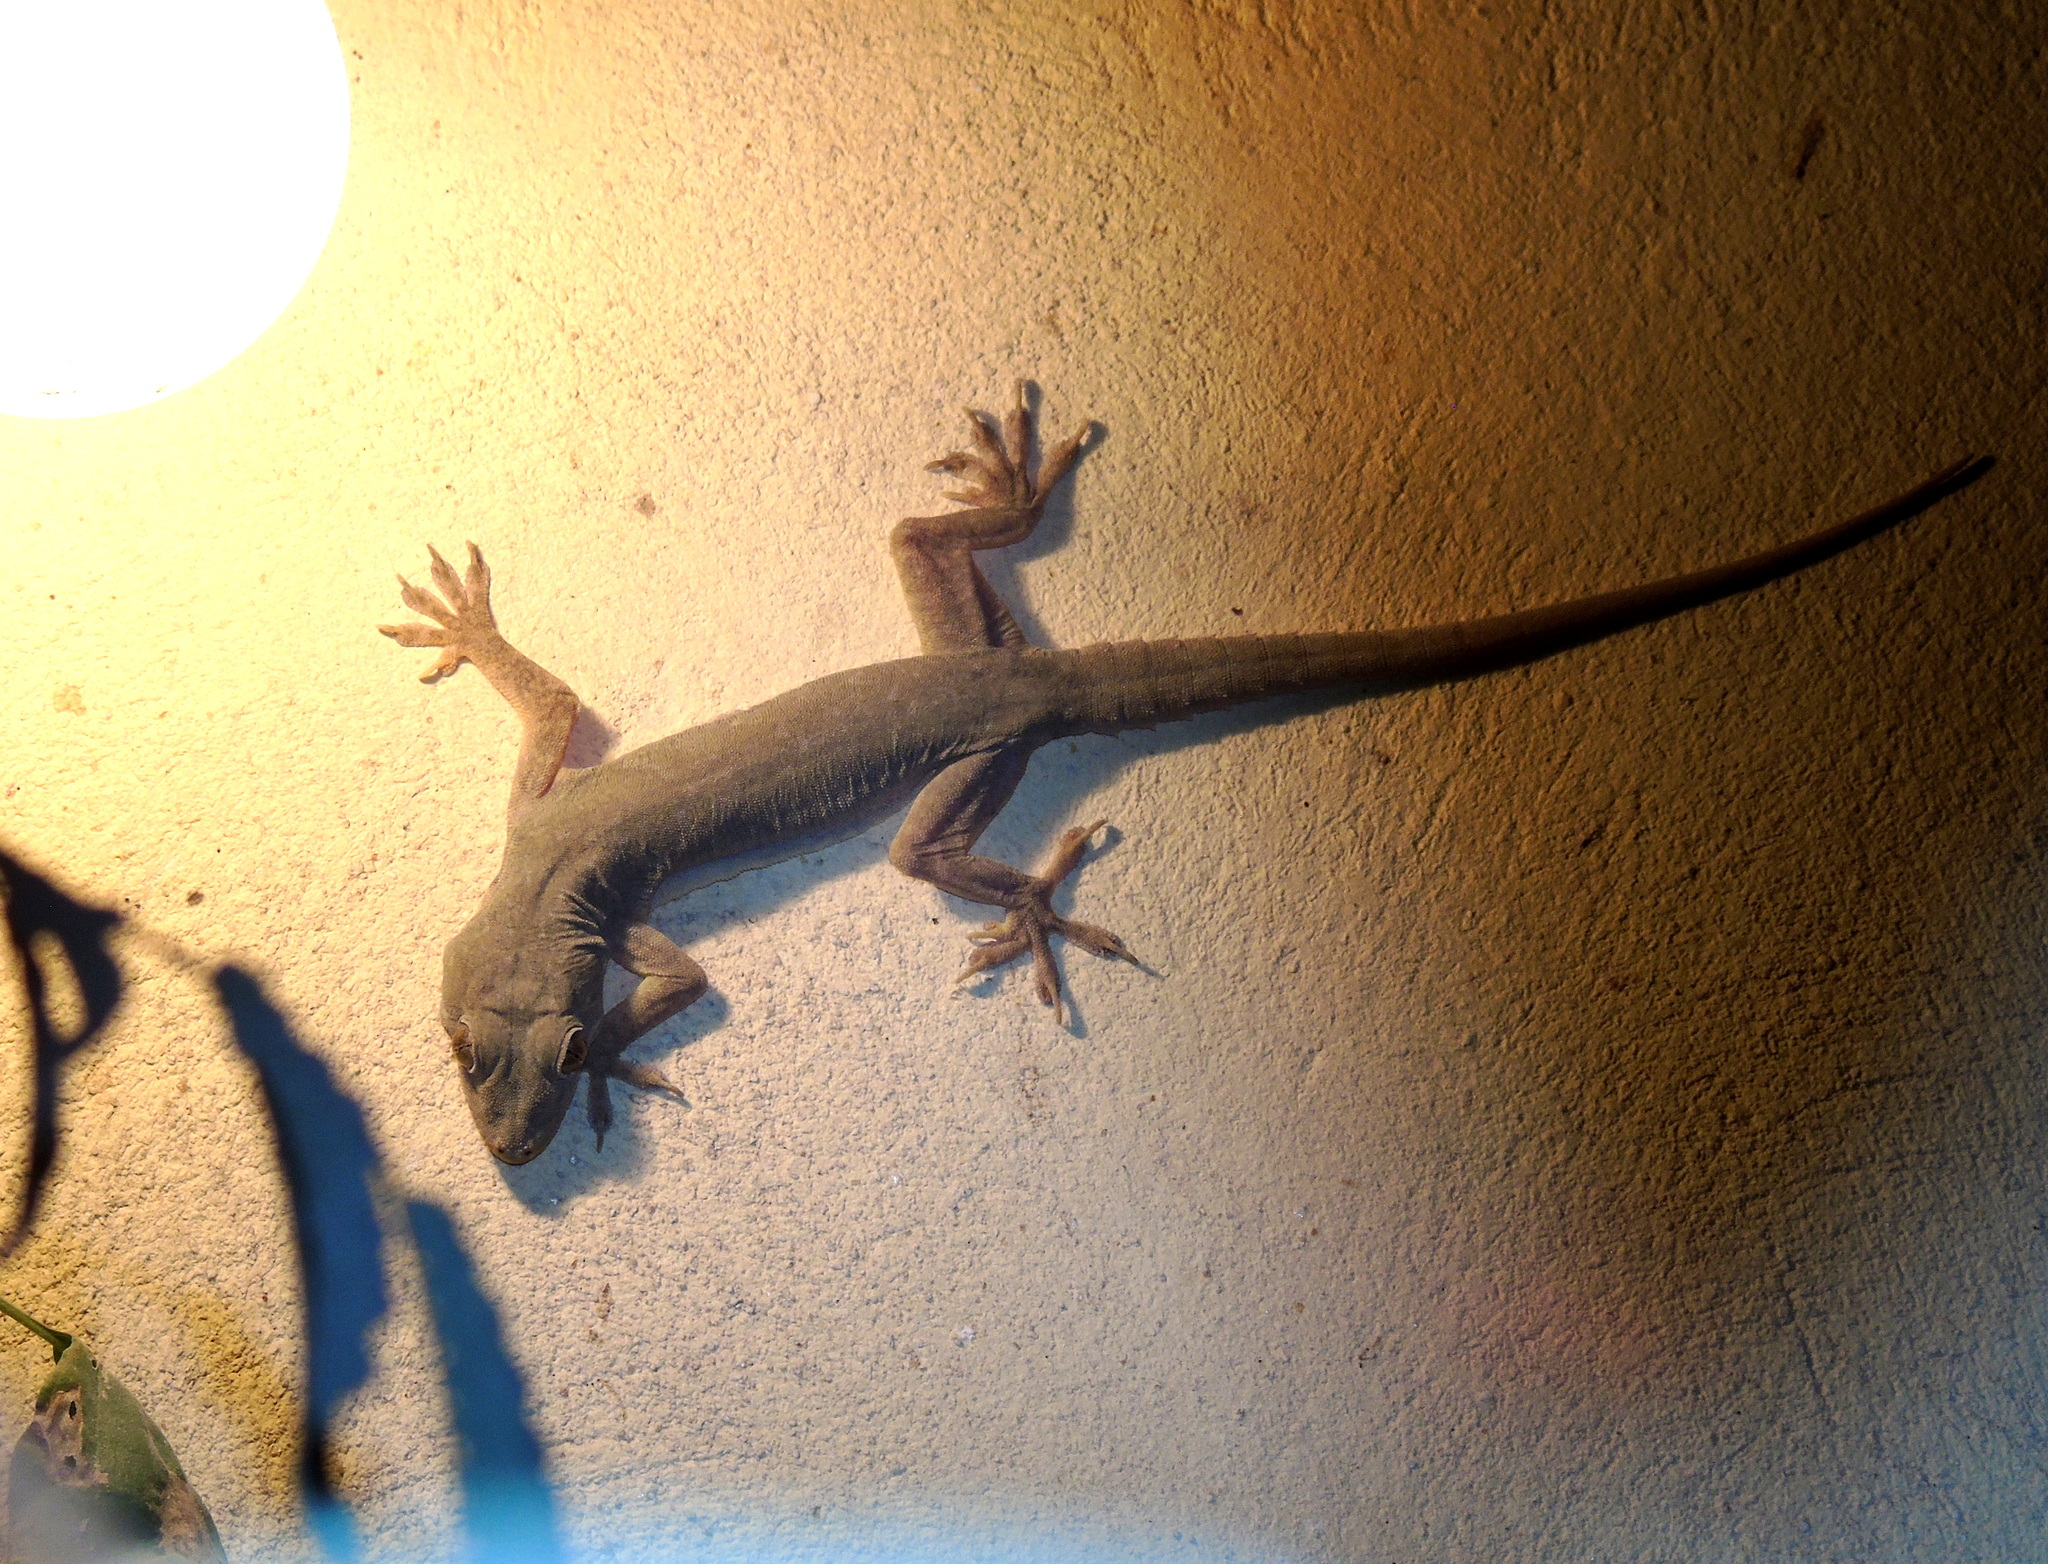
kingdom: Animalia
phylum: Chordata
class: Squamata
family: Gekkonidae
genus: Hemidactylus
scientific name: Hemidactylus flaviviridis
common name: Northern house gecko
